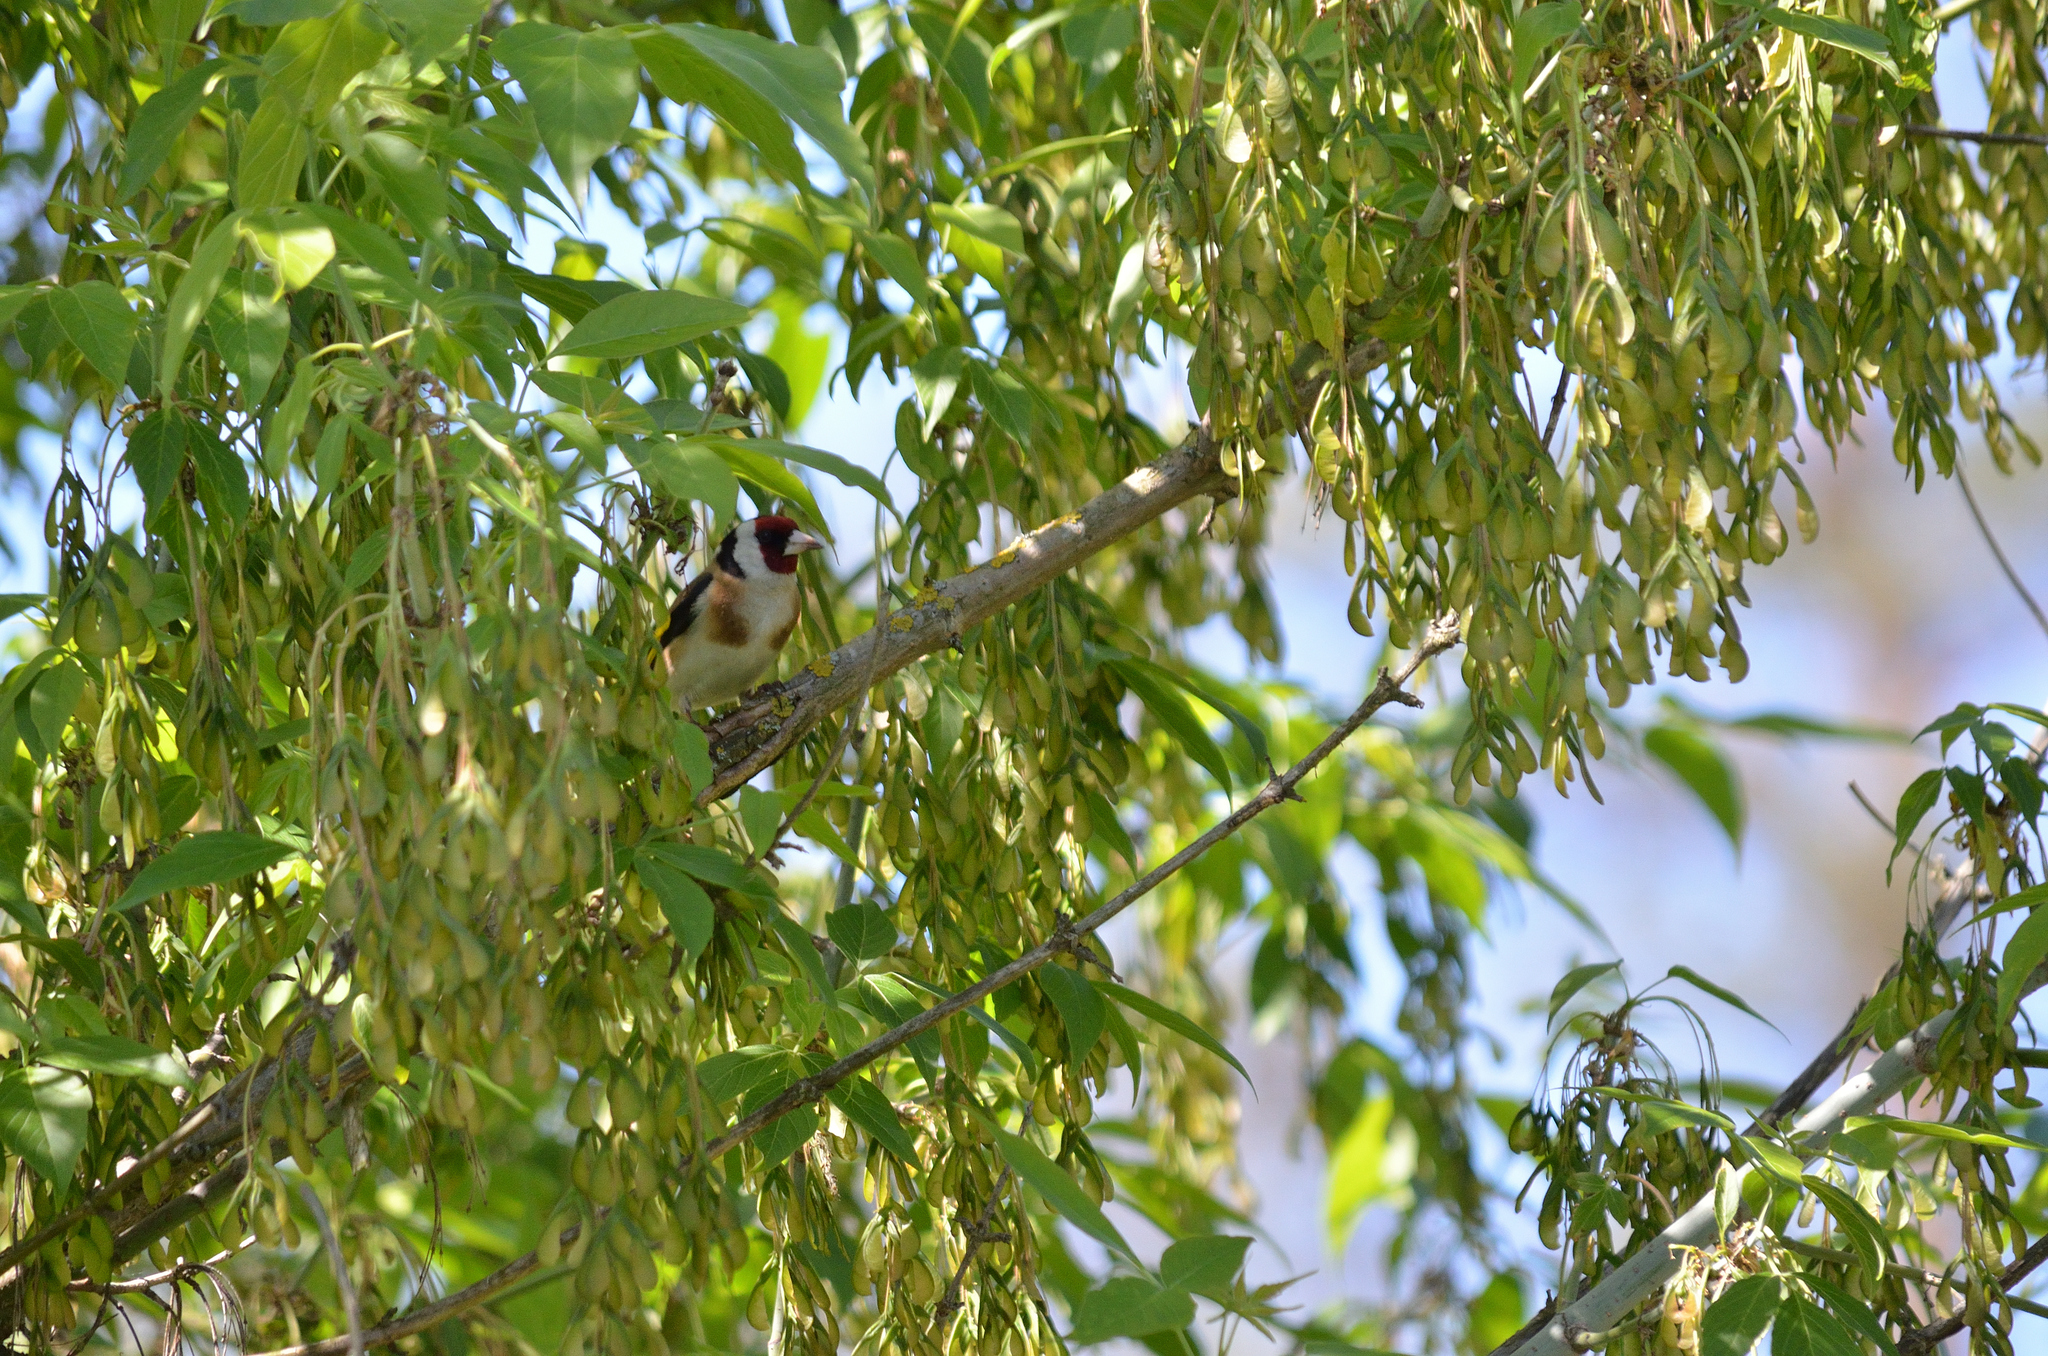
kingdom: Animalia
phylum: Chordata
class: Aves
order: Passeriformes
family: Fringillidae
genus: Carduelis
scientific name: Carduelis carduelis
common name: European goldfinch
